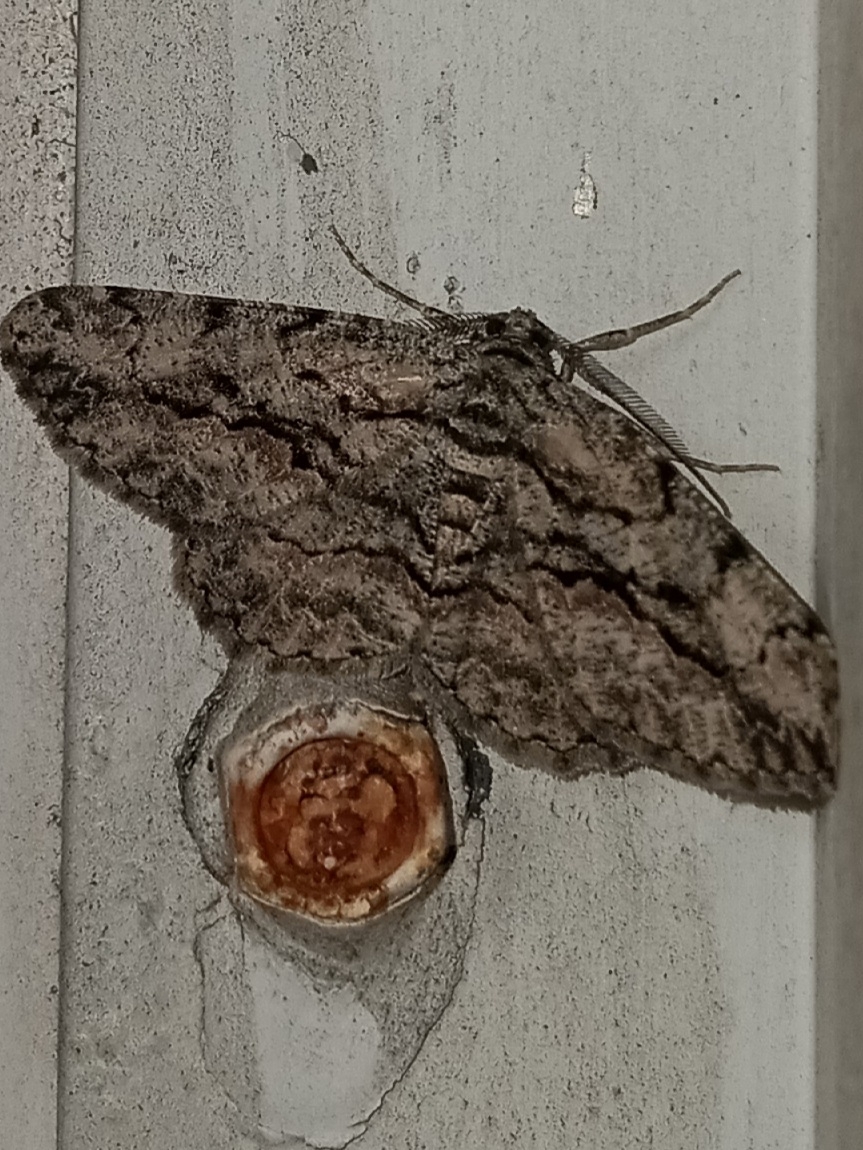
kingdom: Animalia
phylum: Arthropoda
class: Insecta
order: Lepidoptera
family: Geometridae
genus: Anavitrinella
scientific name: Anavitrinella pampinaria
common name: Common gray
